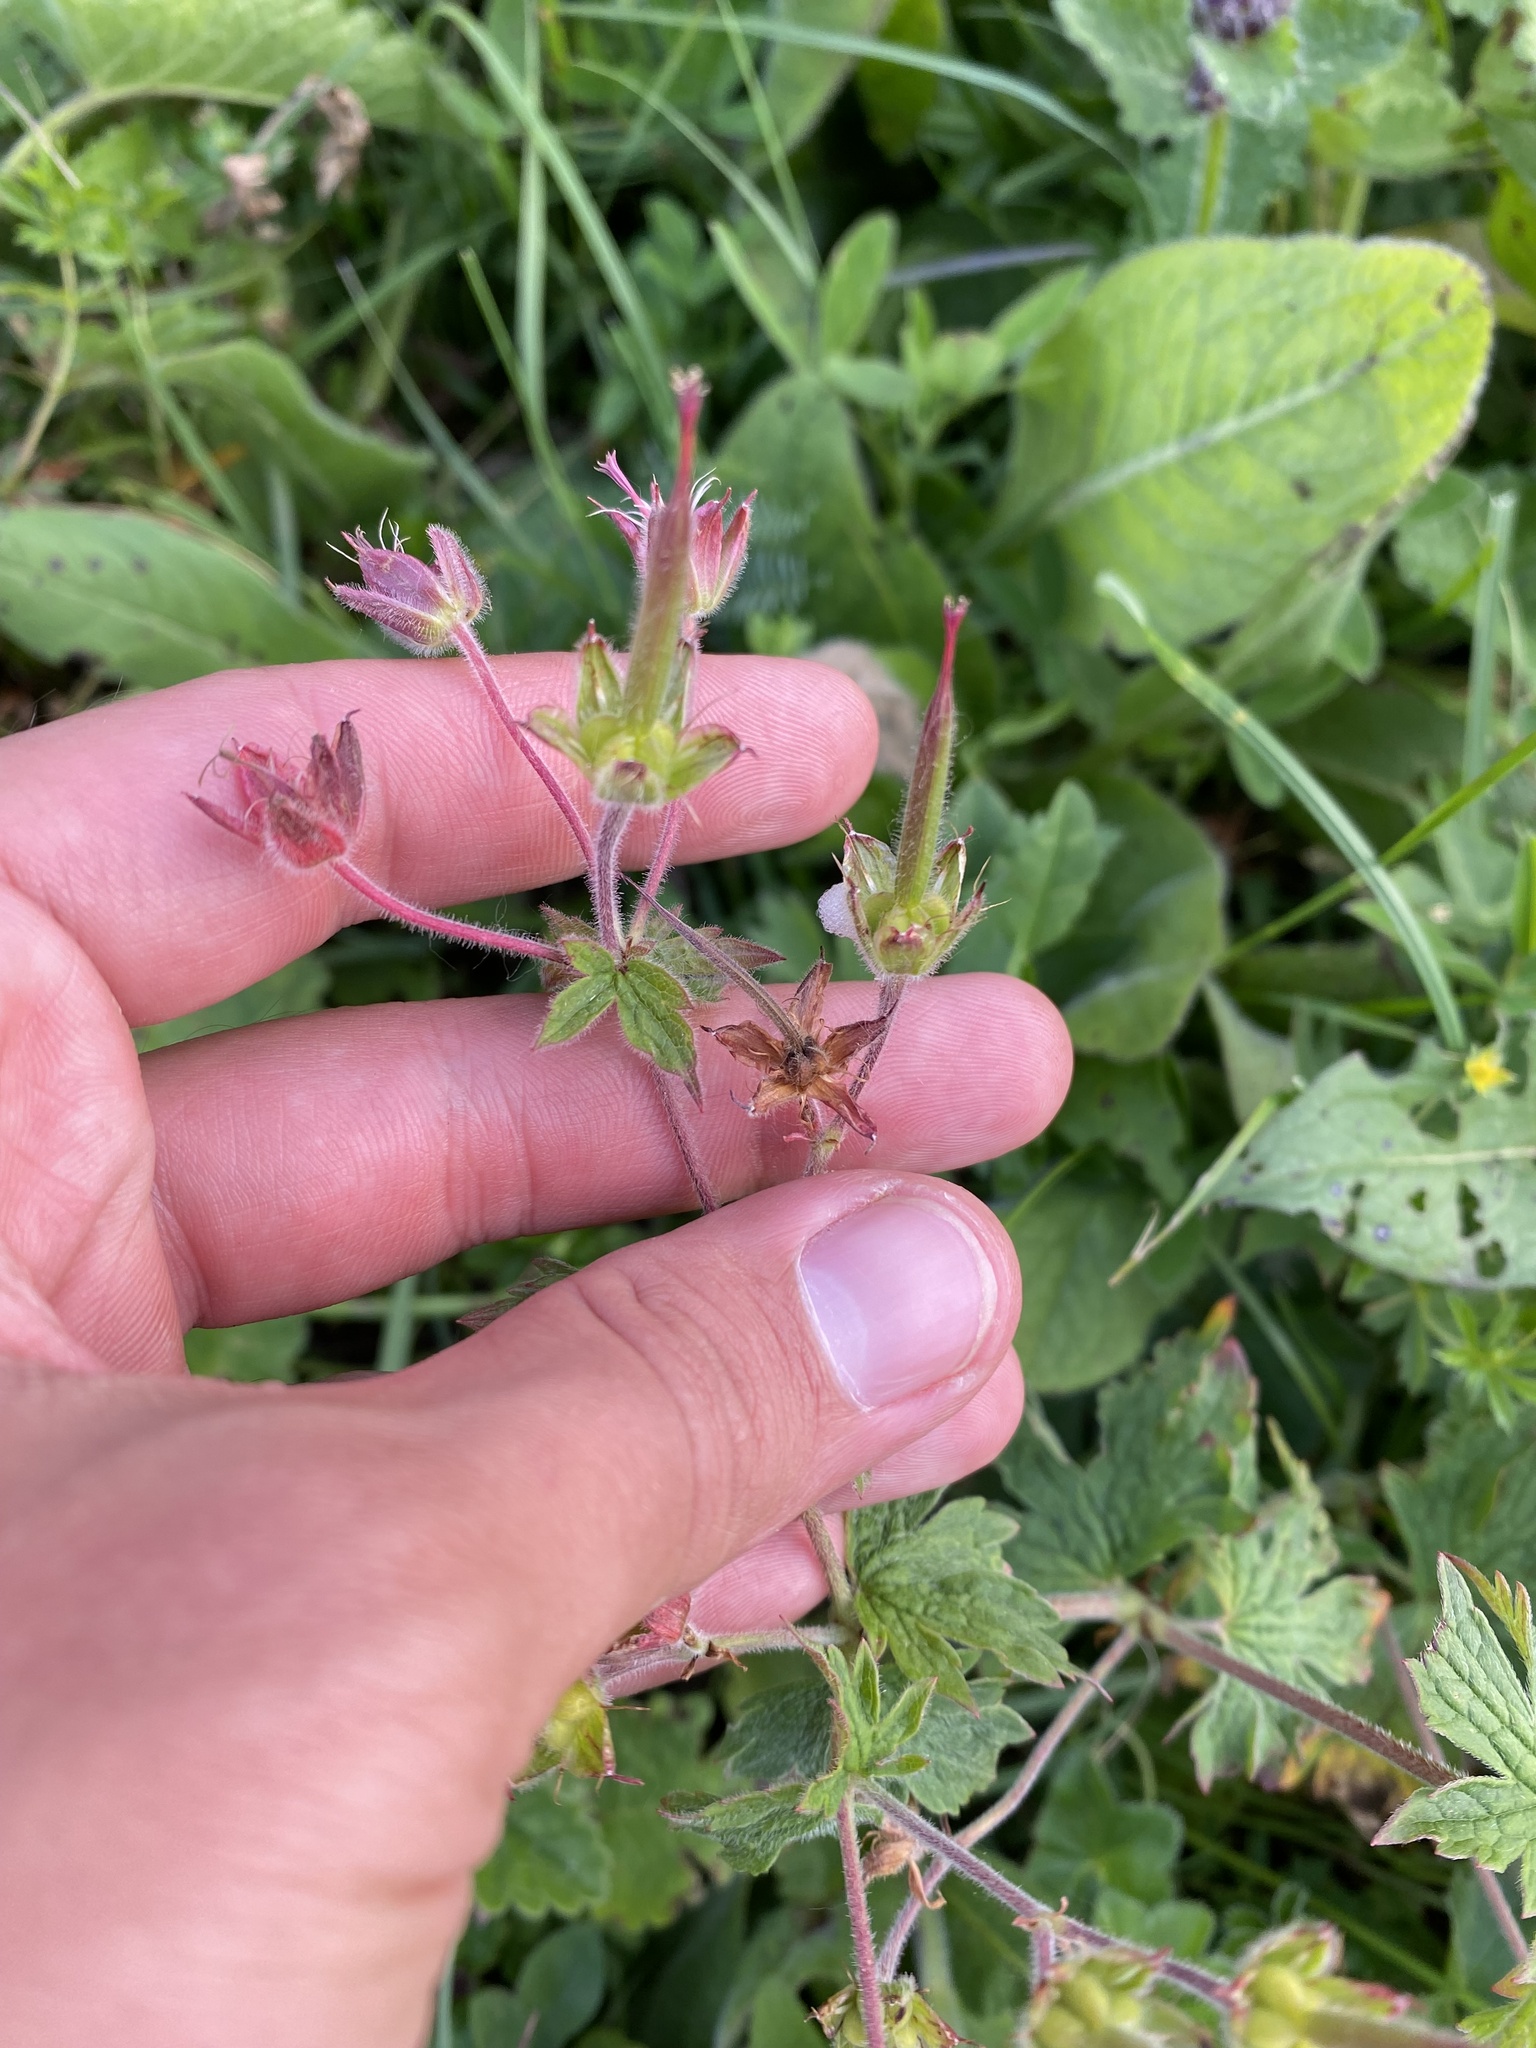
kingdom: Plantae
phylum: Tracheophyta
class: Magnoliopsida
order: Geraniales
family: Geraniaceae
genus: Geranium
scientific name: Geranium sylvaticum
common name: Wood crane's-bill
